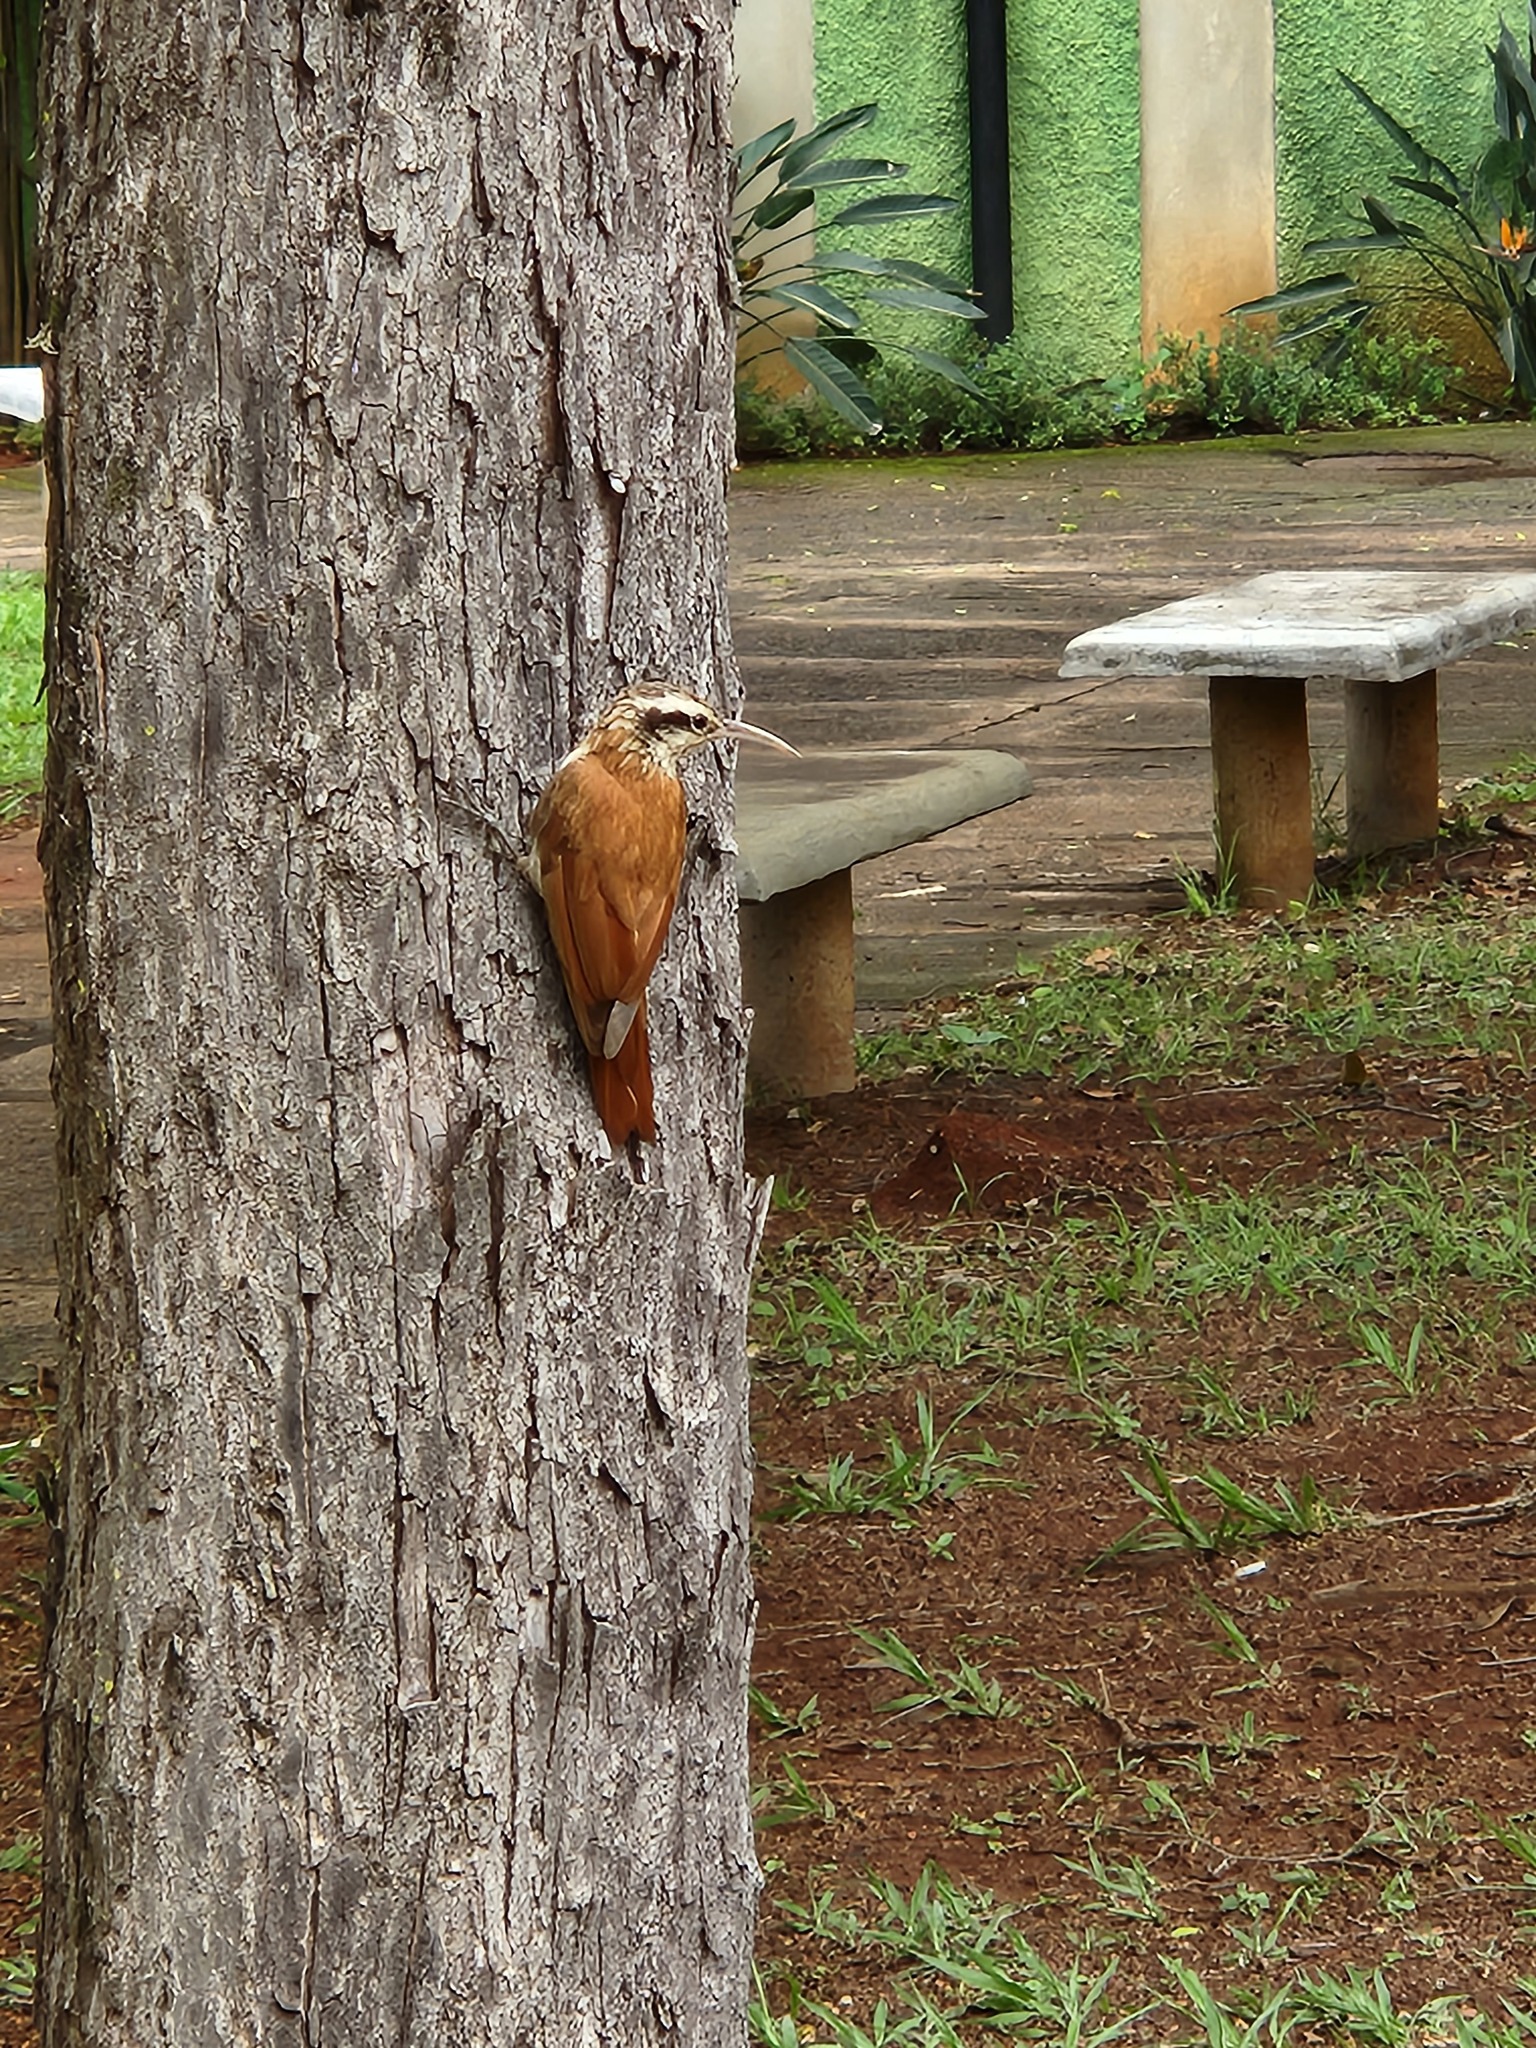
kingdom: Animalia
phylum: Chordata
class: Aves
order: Passeriformes
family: Furnariidae
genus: Lepidocolaptes
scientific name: Lepidocolaptes angustirostris
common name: Narrow-billed woodcreeper
